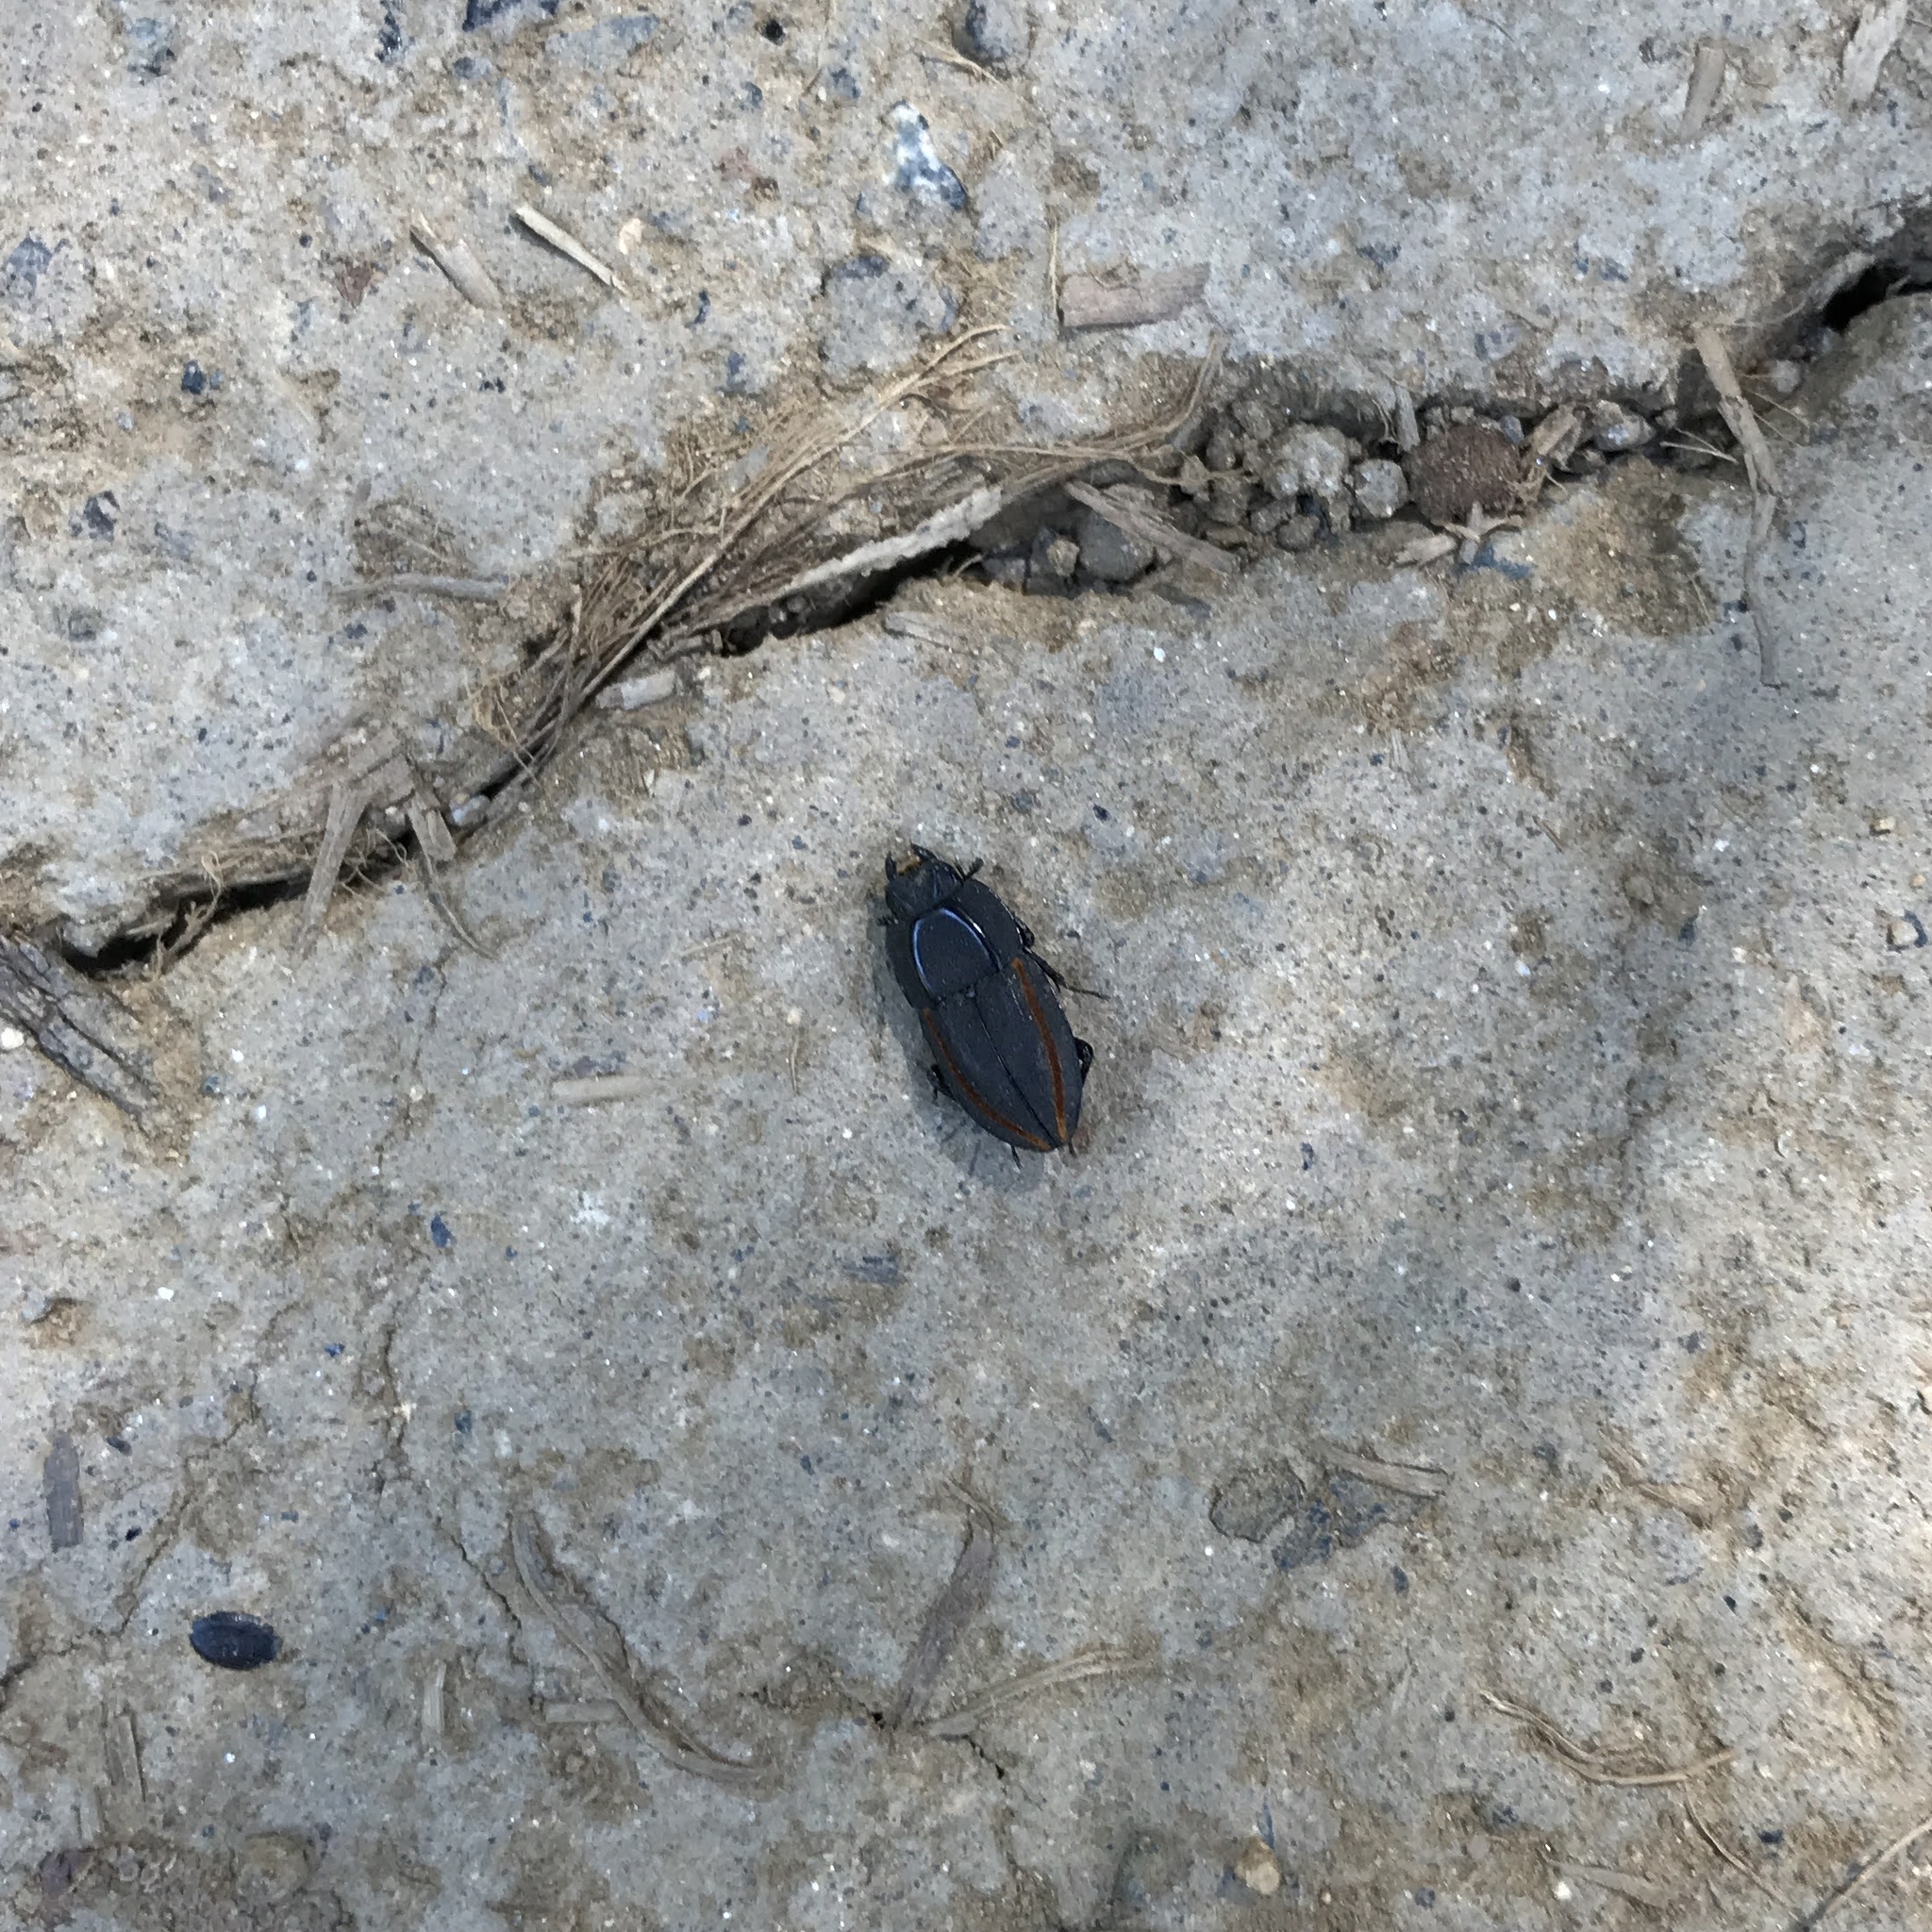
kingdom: Animalia
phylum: Arthropoda
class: Insecta
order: Coleoptera
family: Lucanidae
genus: Erichius
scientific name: Erichius vittatus
